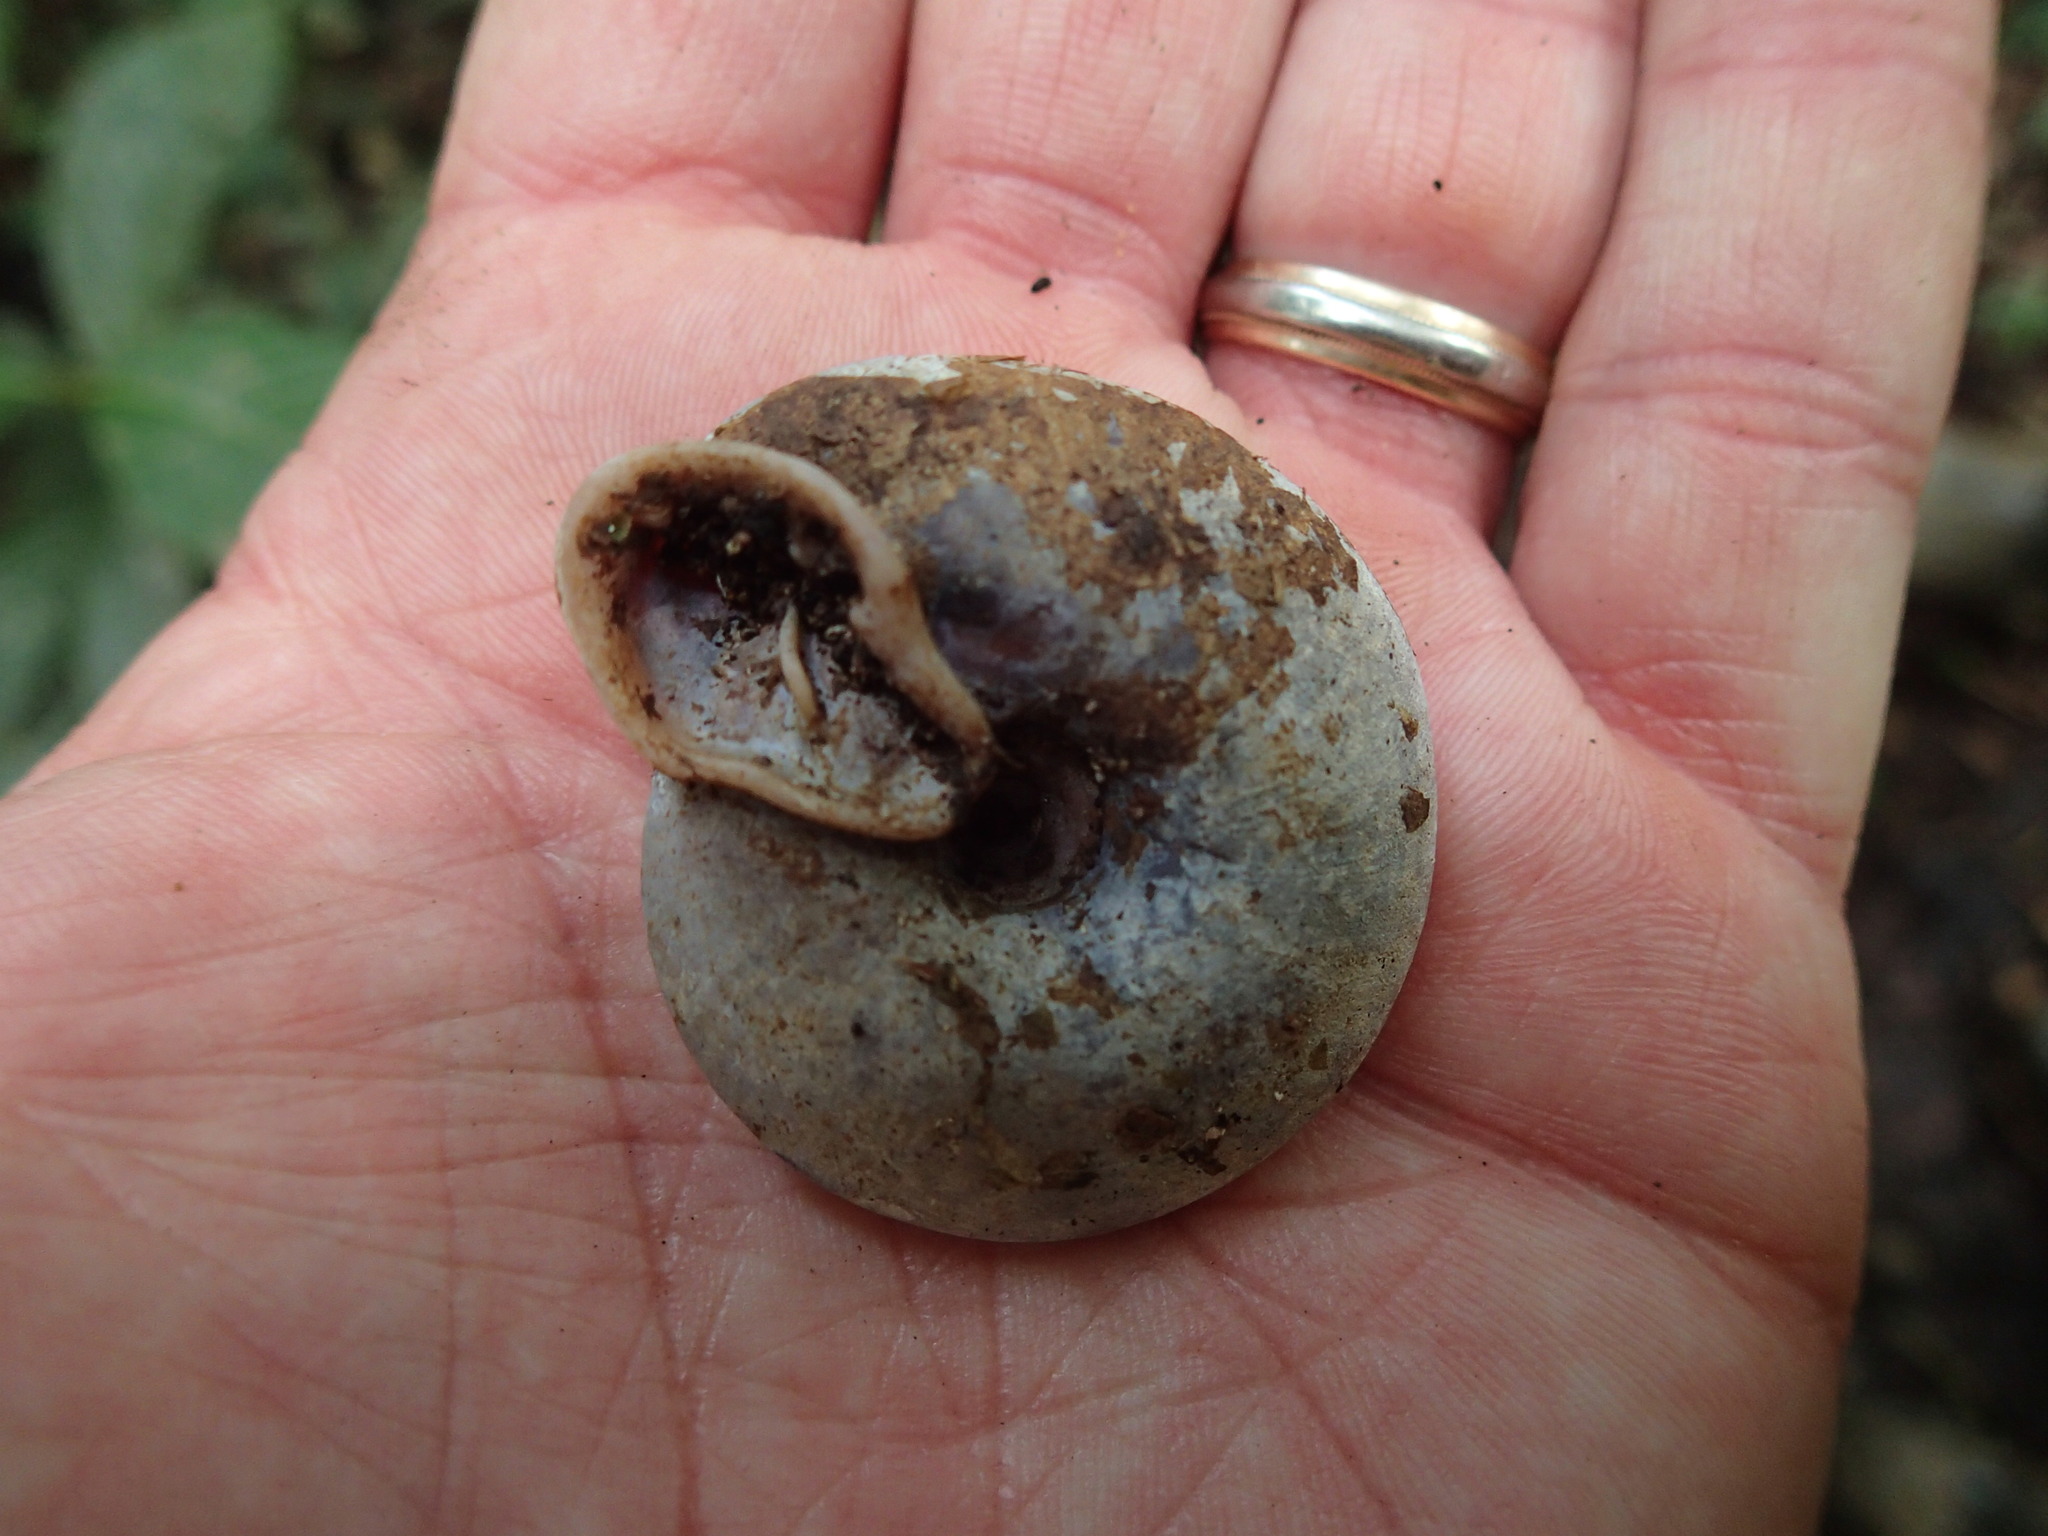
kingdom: Animalia
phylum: Mollusca
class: Gastropoda
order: Stylommatophora
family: Labyrinthidae
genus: Labyrinthus
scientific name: Labyrinthus
